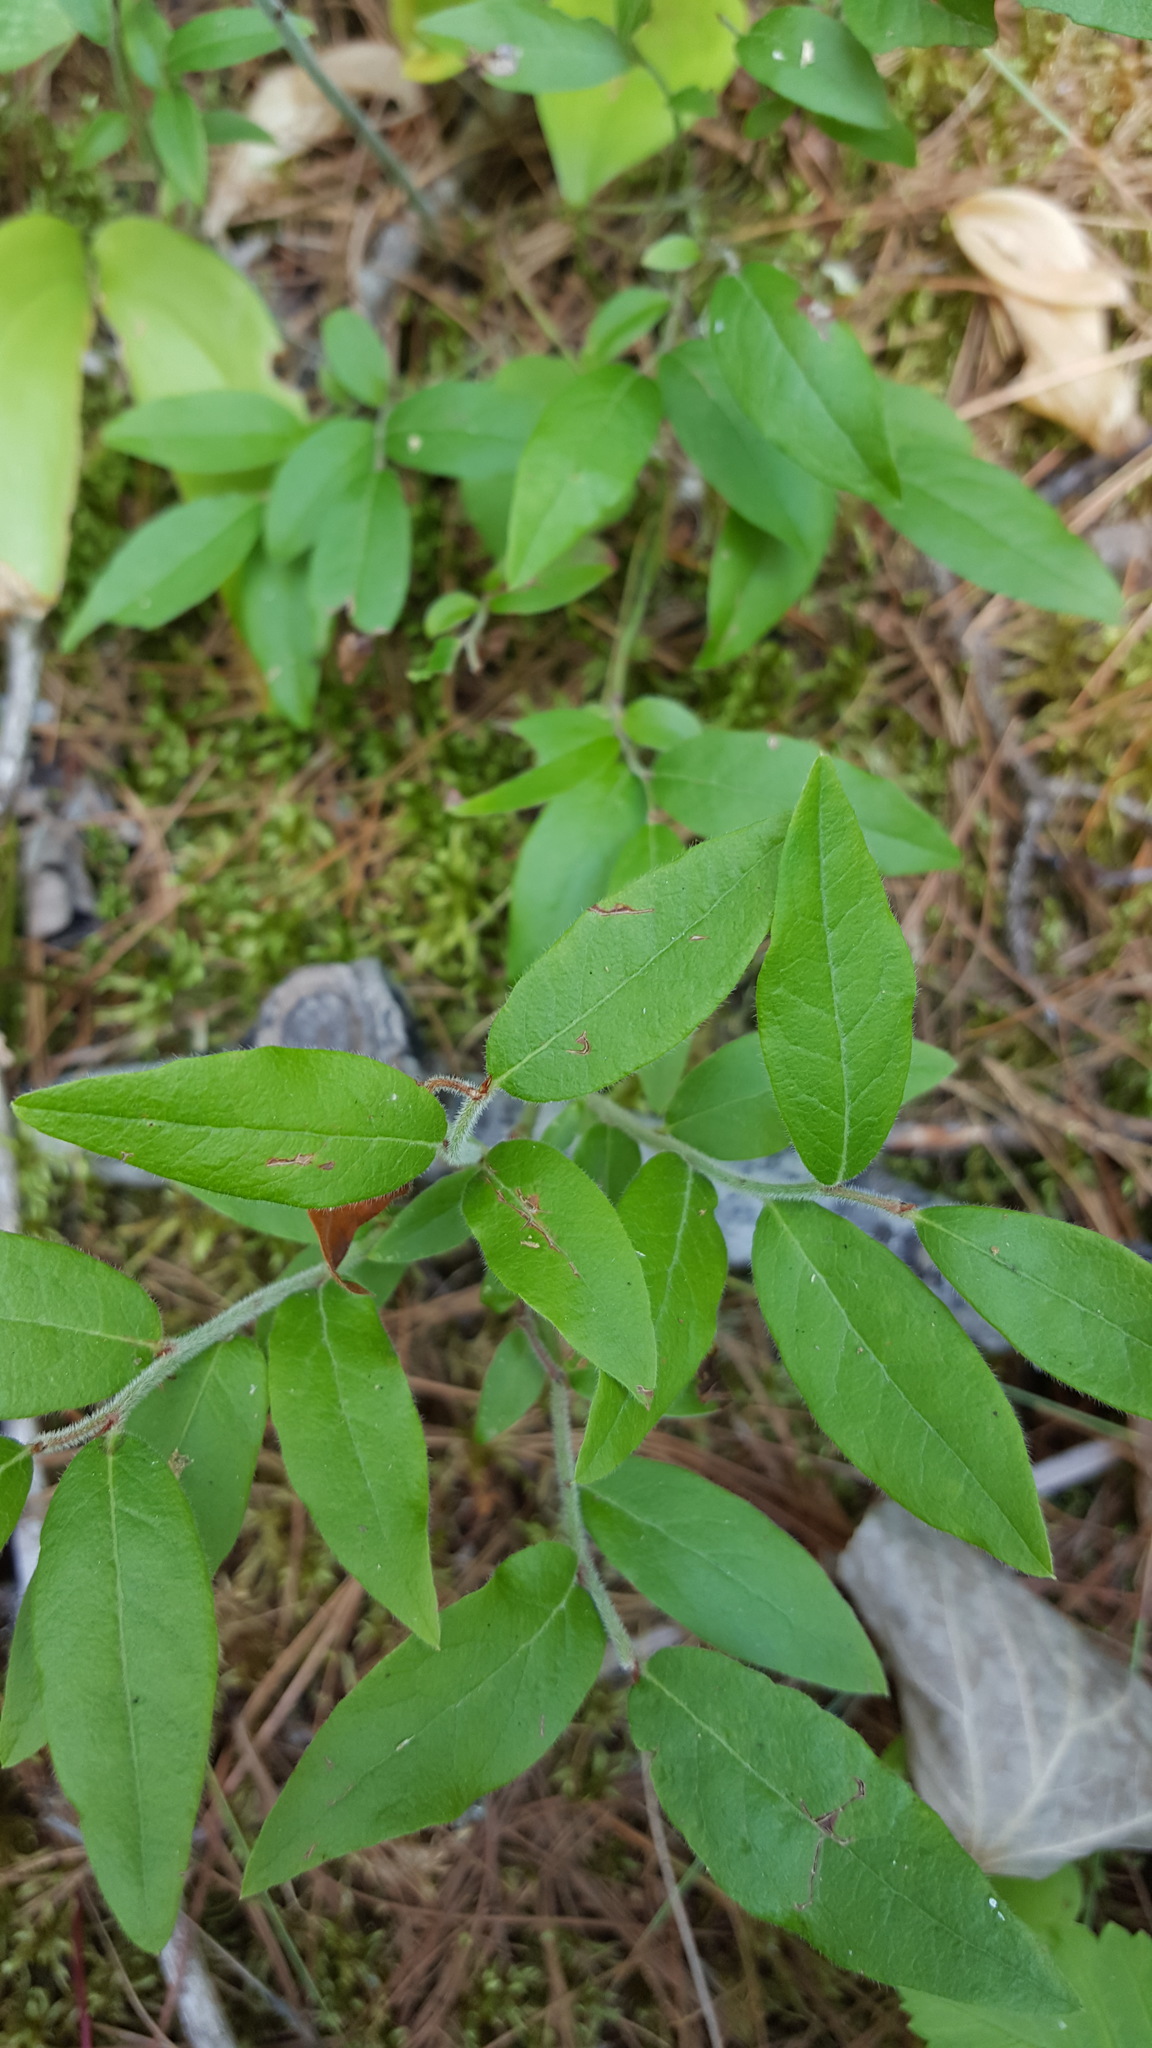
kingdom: Plantae
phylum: Tracheophyta
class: Magnoliopsida
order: Ericales
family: Ericaceae
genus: Vaccinium
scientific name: Vaccinium myrtilloides
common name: Canada blueberry
